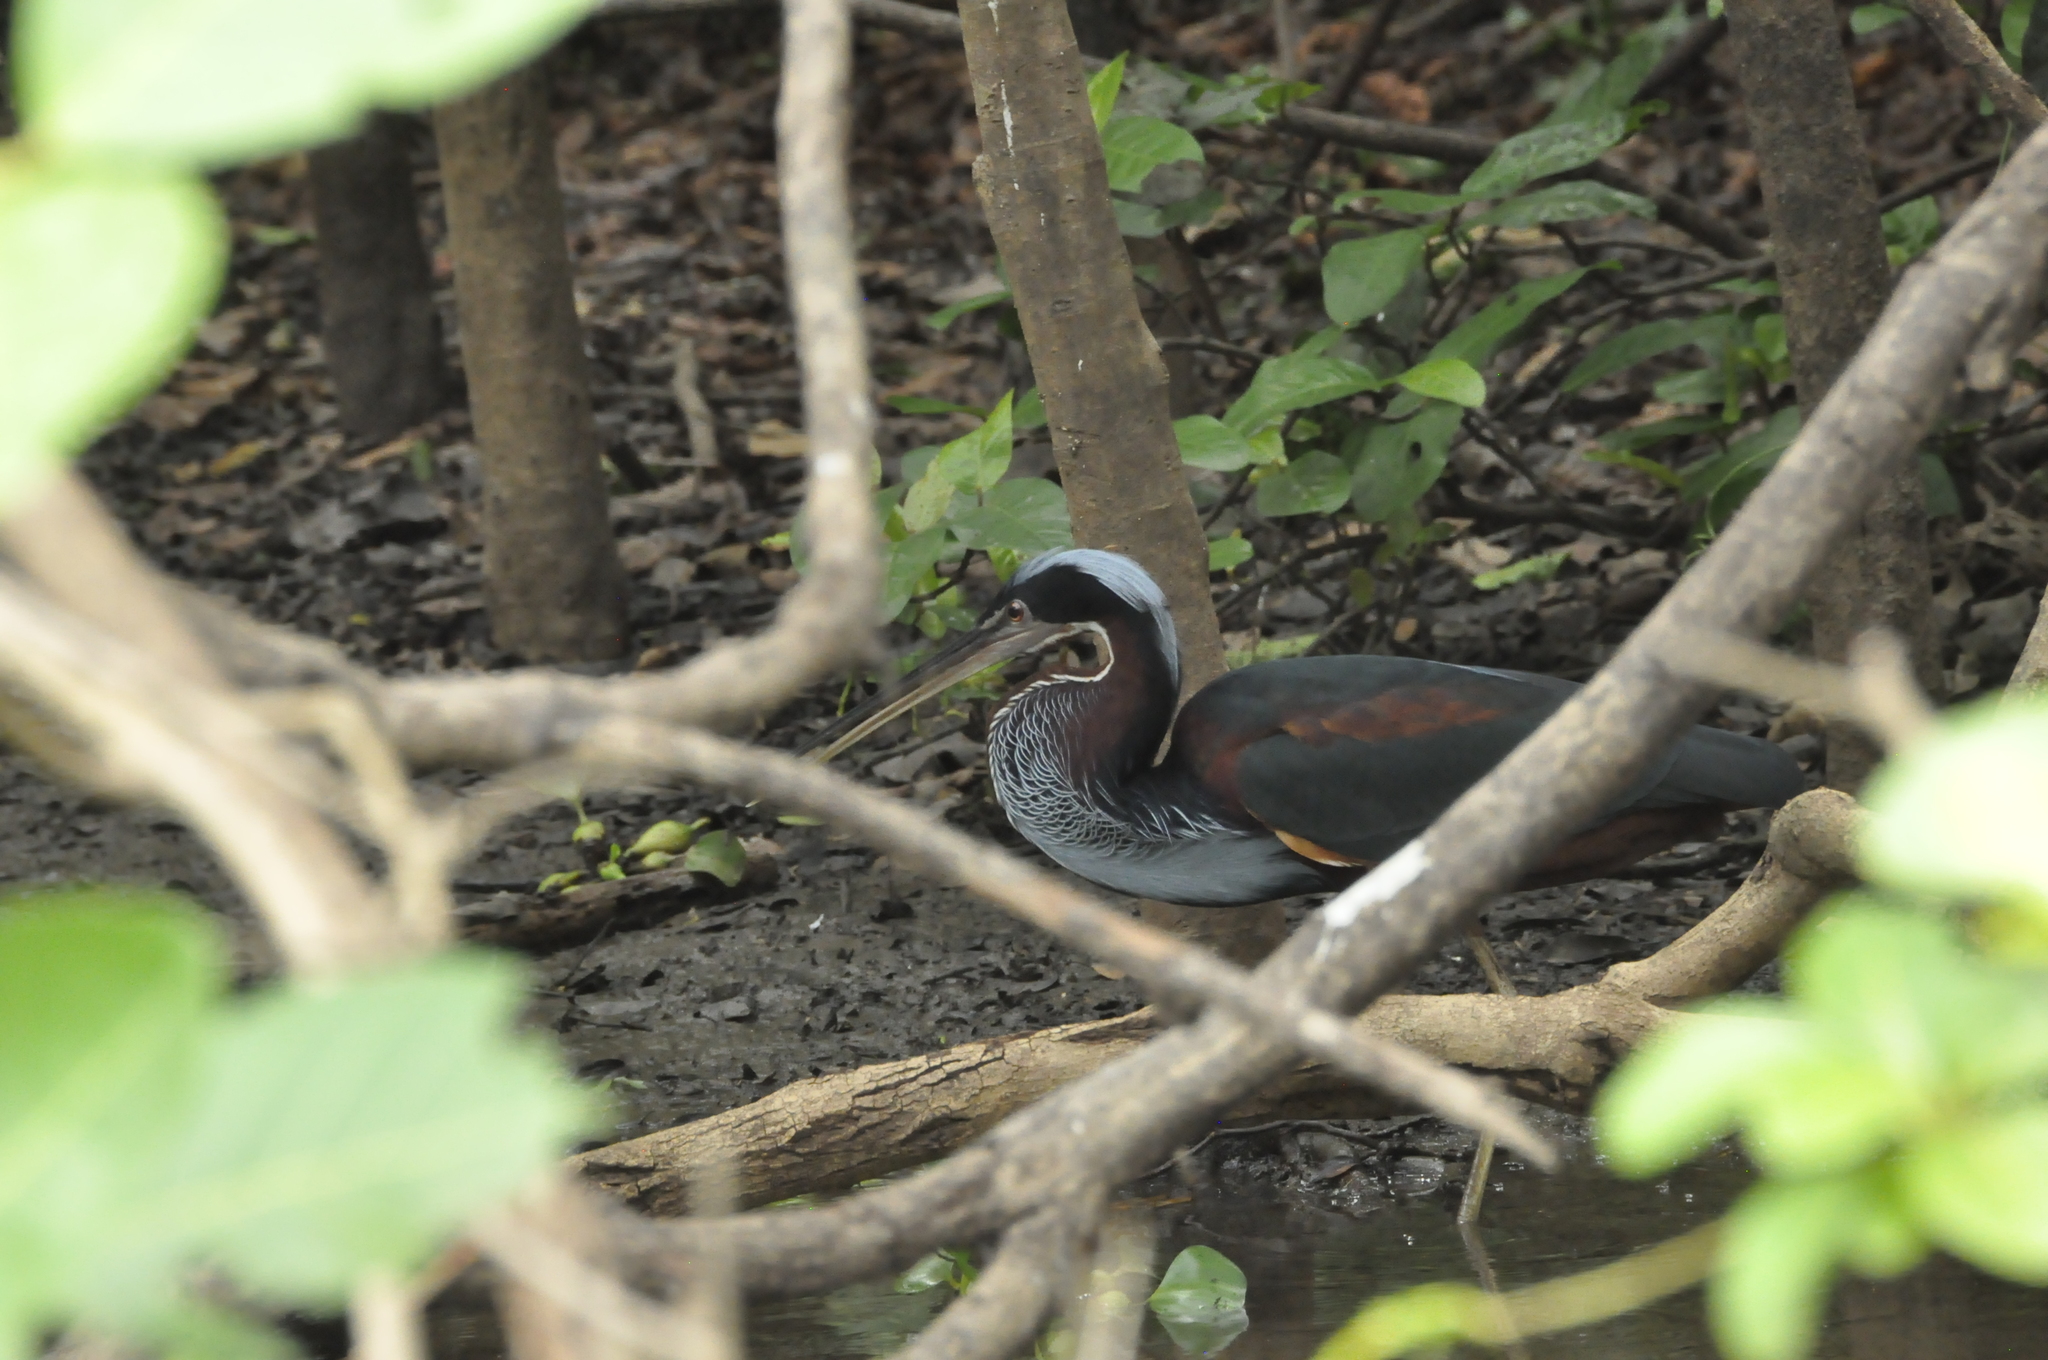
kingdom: Animalia
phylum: Chordata
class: Aves
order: Pelecaniformes
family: Ardeidae
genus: Agamia
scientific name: Agamia agami
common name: Agami heron
